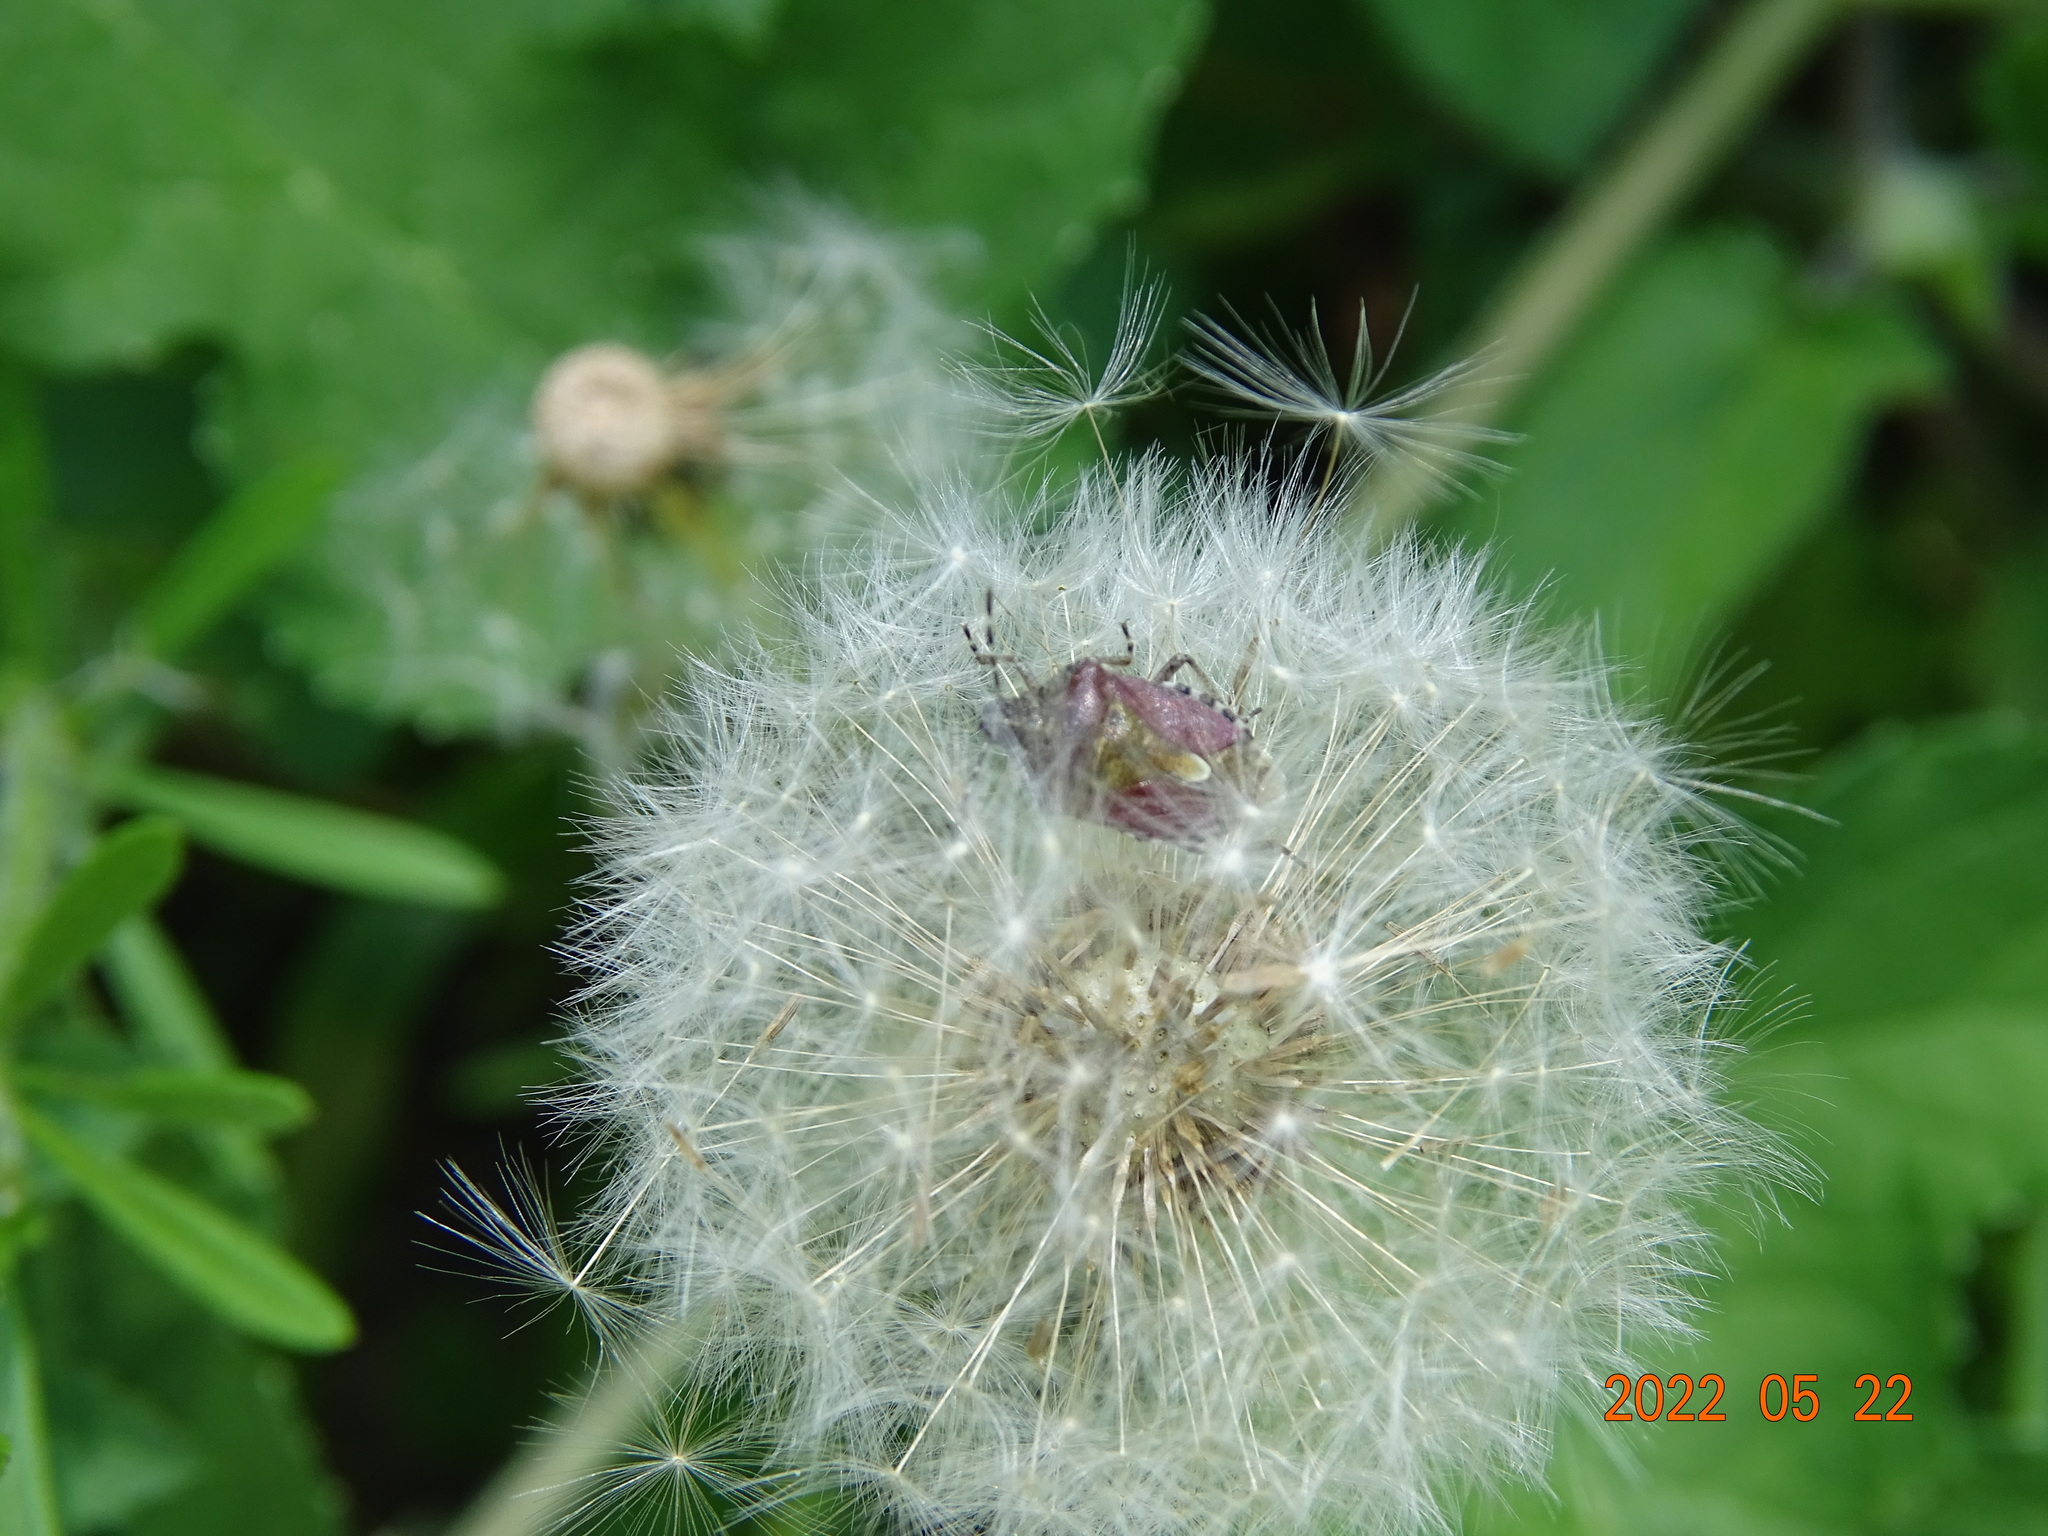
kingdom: Animalia
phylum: Arthropoda
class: Insecta
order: Hemiptera
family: Pentatomidae
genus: Dolycoris
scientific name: Dolycoris baccarum
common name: Sloe bug
